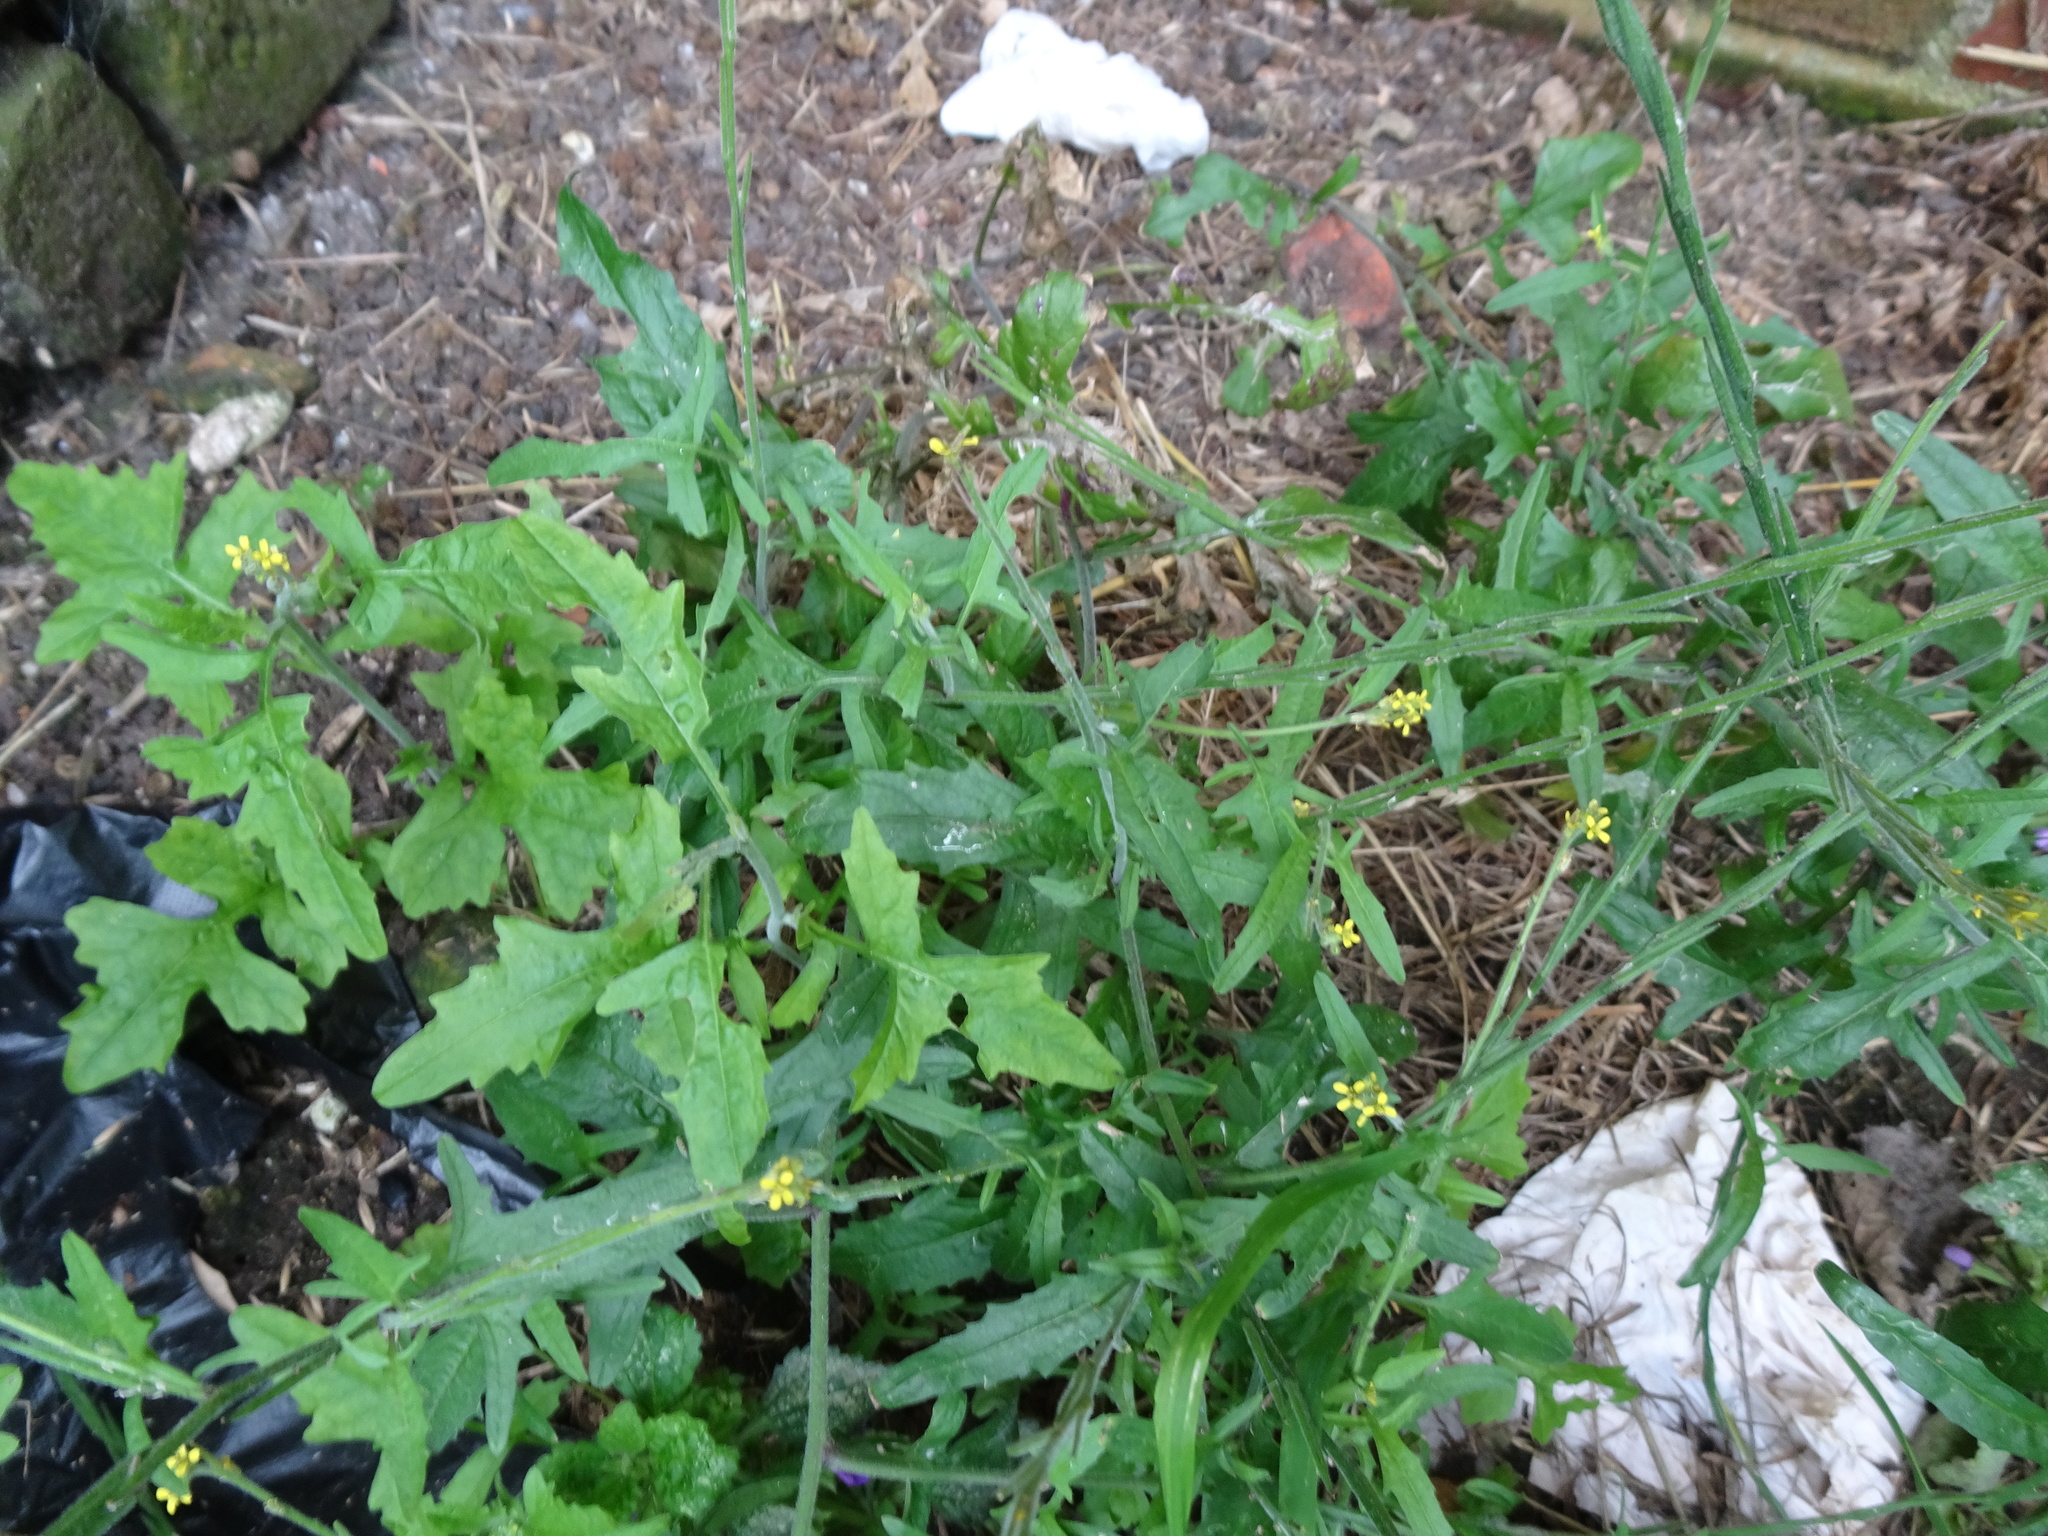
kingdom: Plantae
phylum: Tracheophyta
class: Magnoliopsida
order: Brassicales
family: Brassicaceae
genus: Sisymbrium
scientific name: Sisymbrium officinale
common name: Hedge mustard
